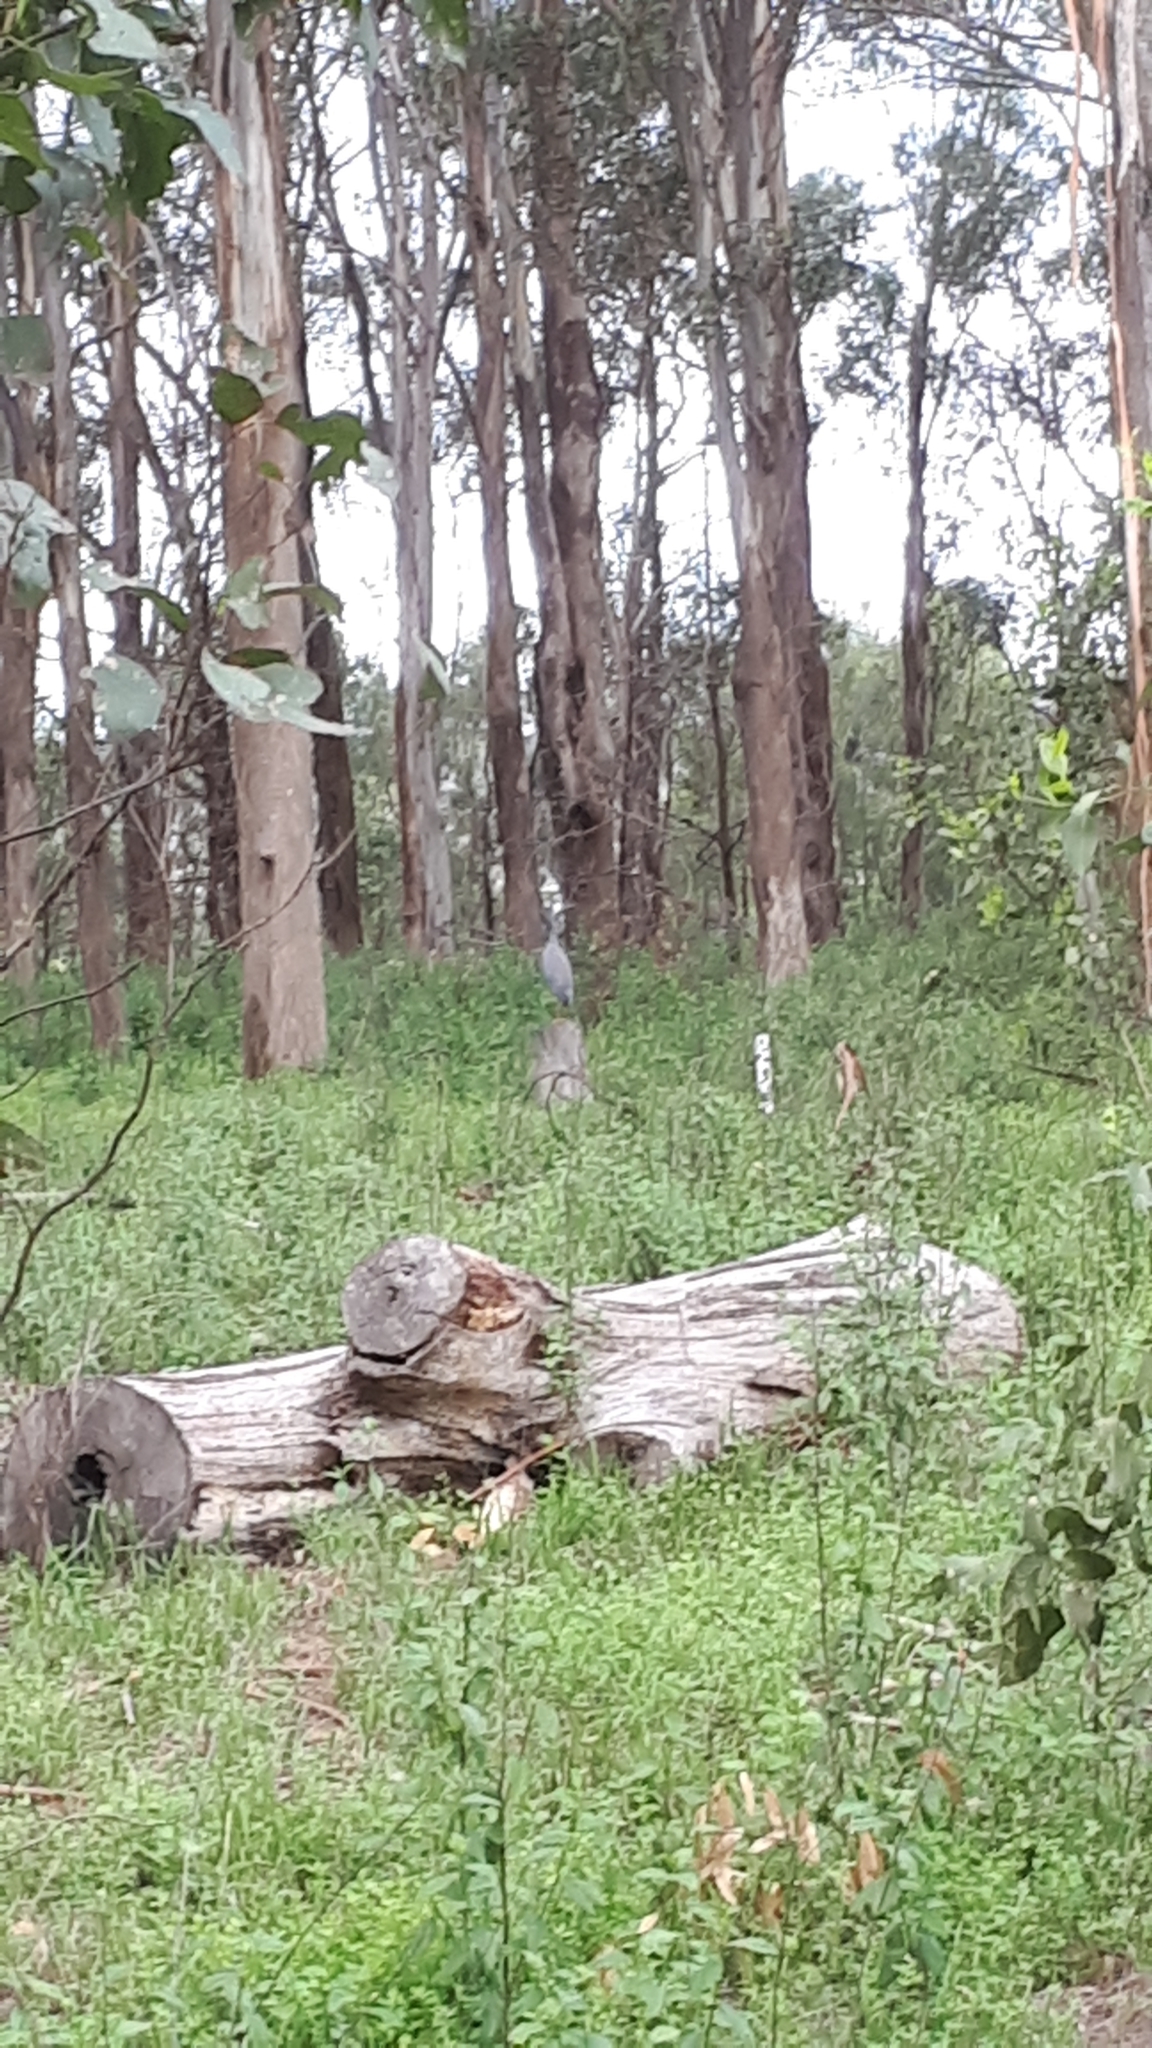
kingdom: Animalia
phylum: Chordata
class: Aves
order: Pelecaniformes
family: Ardeidae
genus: Egretta
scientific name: Egretta novaehollandiae
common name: White-faced heron
